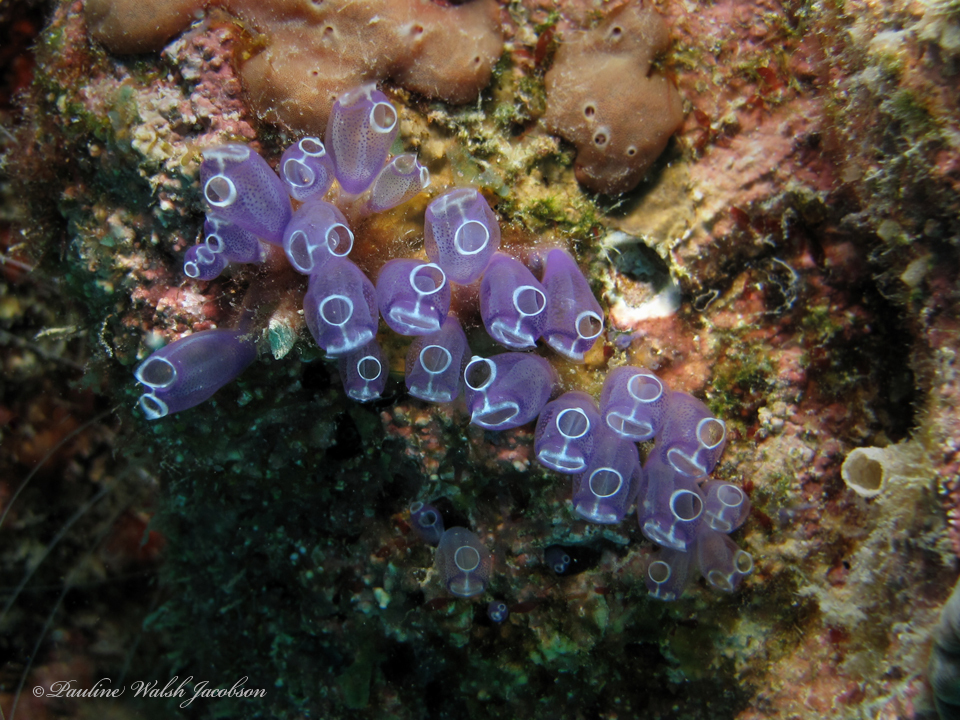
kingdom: Animalia
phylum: Chordata
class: Ascidiacea
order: Aplousobranchia
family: Clavelinidae
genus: Clavelina
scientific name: Clavelina puertosecensis
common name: Blue bell tunicate
